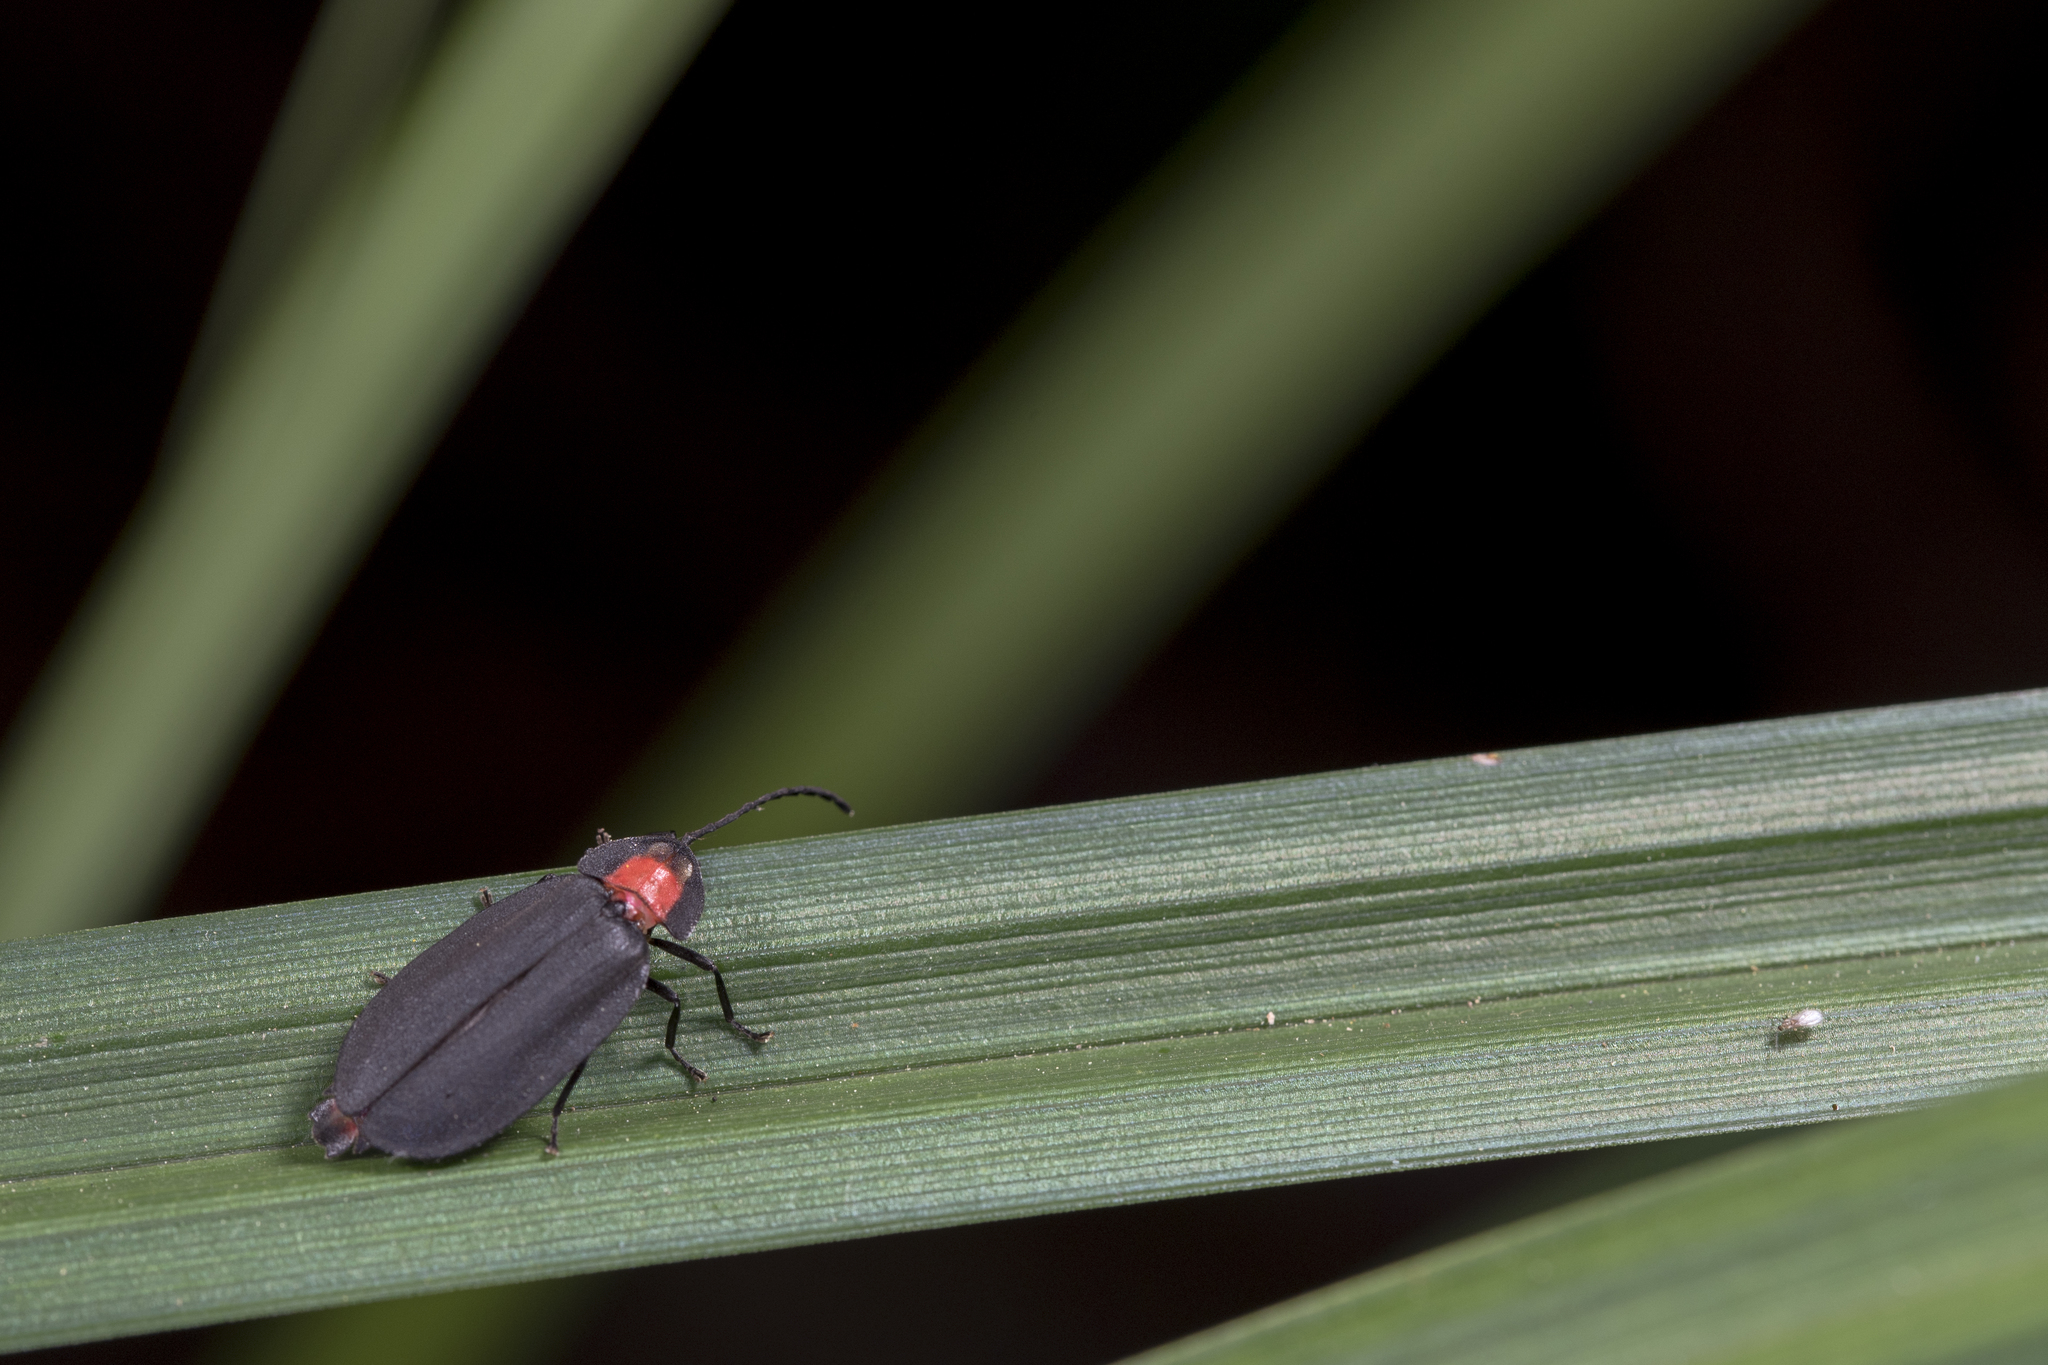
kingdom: Animalia
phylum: Arthropoda
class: Insecta
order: Coleoptera
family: Lampyridae
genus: Pyrocoelia
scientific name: Pyrocoelia formosana
